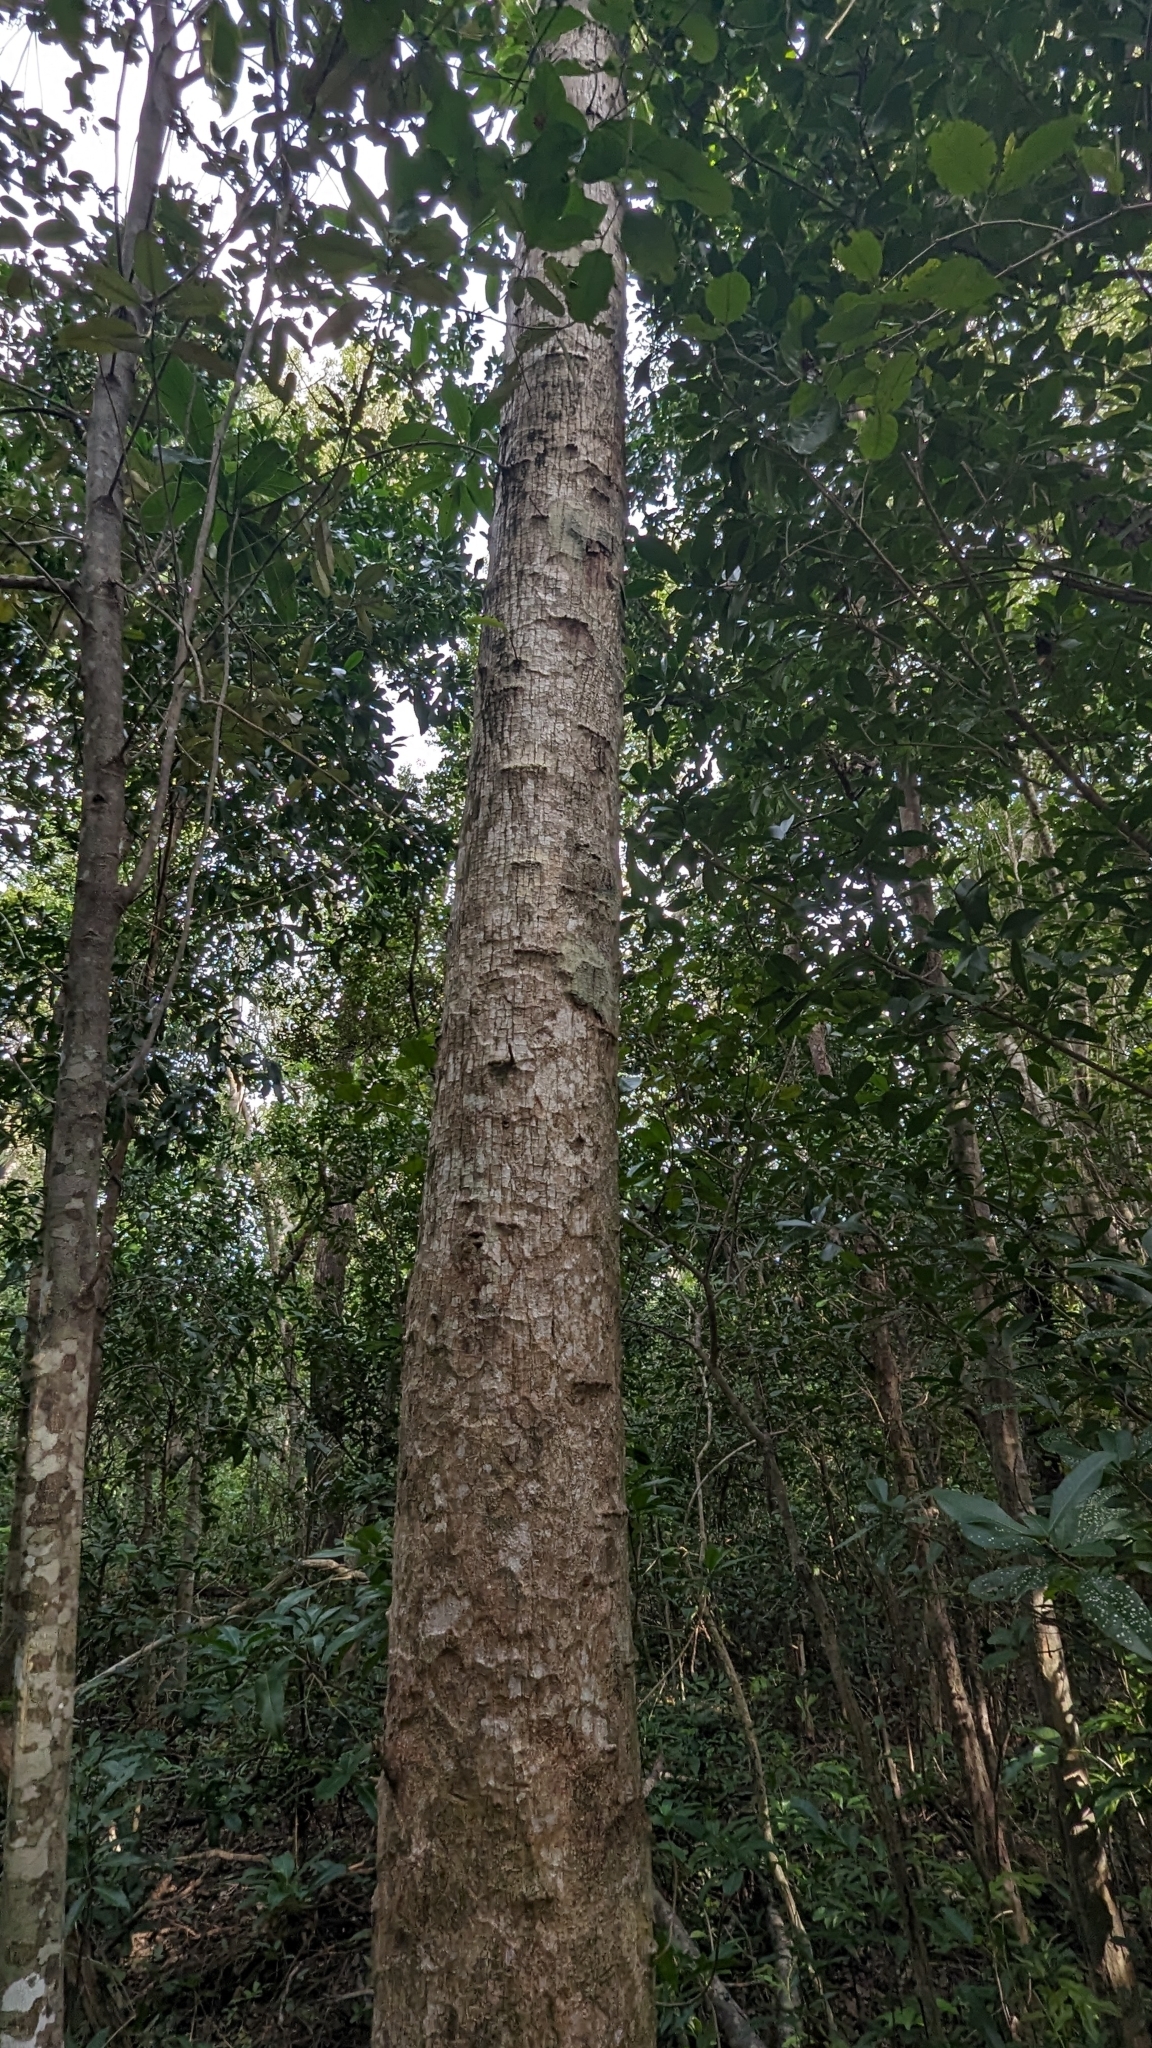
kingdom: Plantae
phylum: Tracheophyta
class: Magnoliopsida
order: Ericales
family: Sapotaceae
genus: Sideroxylon
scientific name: Sideroxylon foetidissimum
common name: Barbados-mastic
